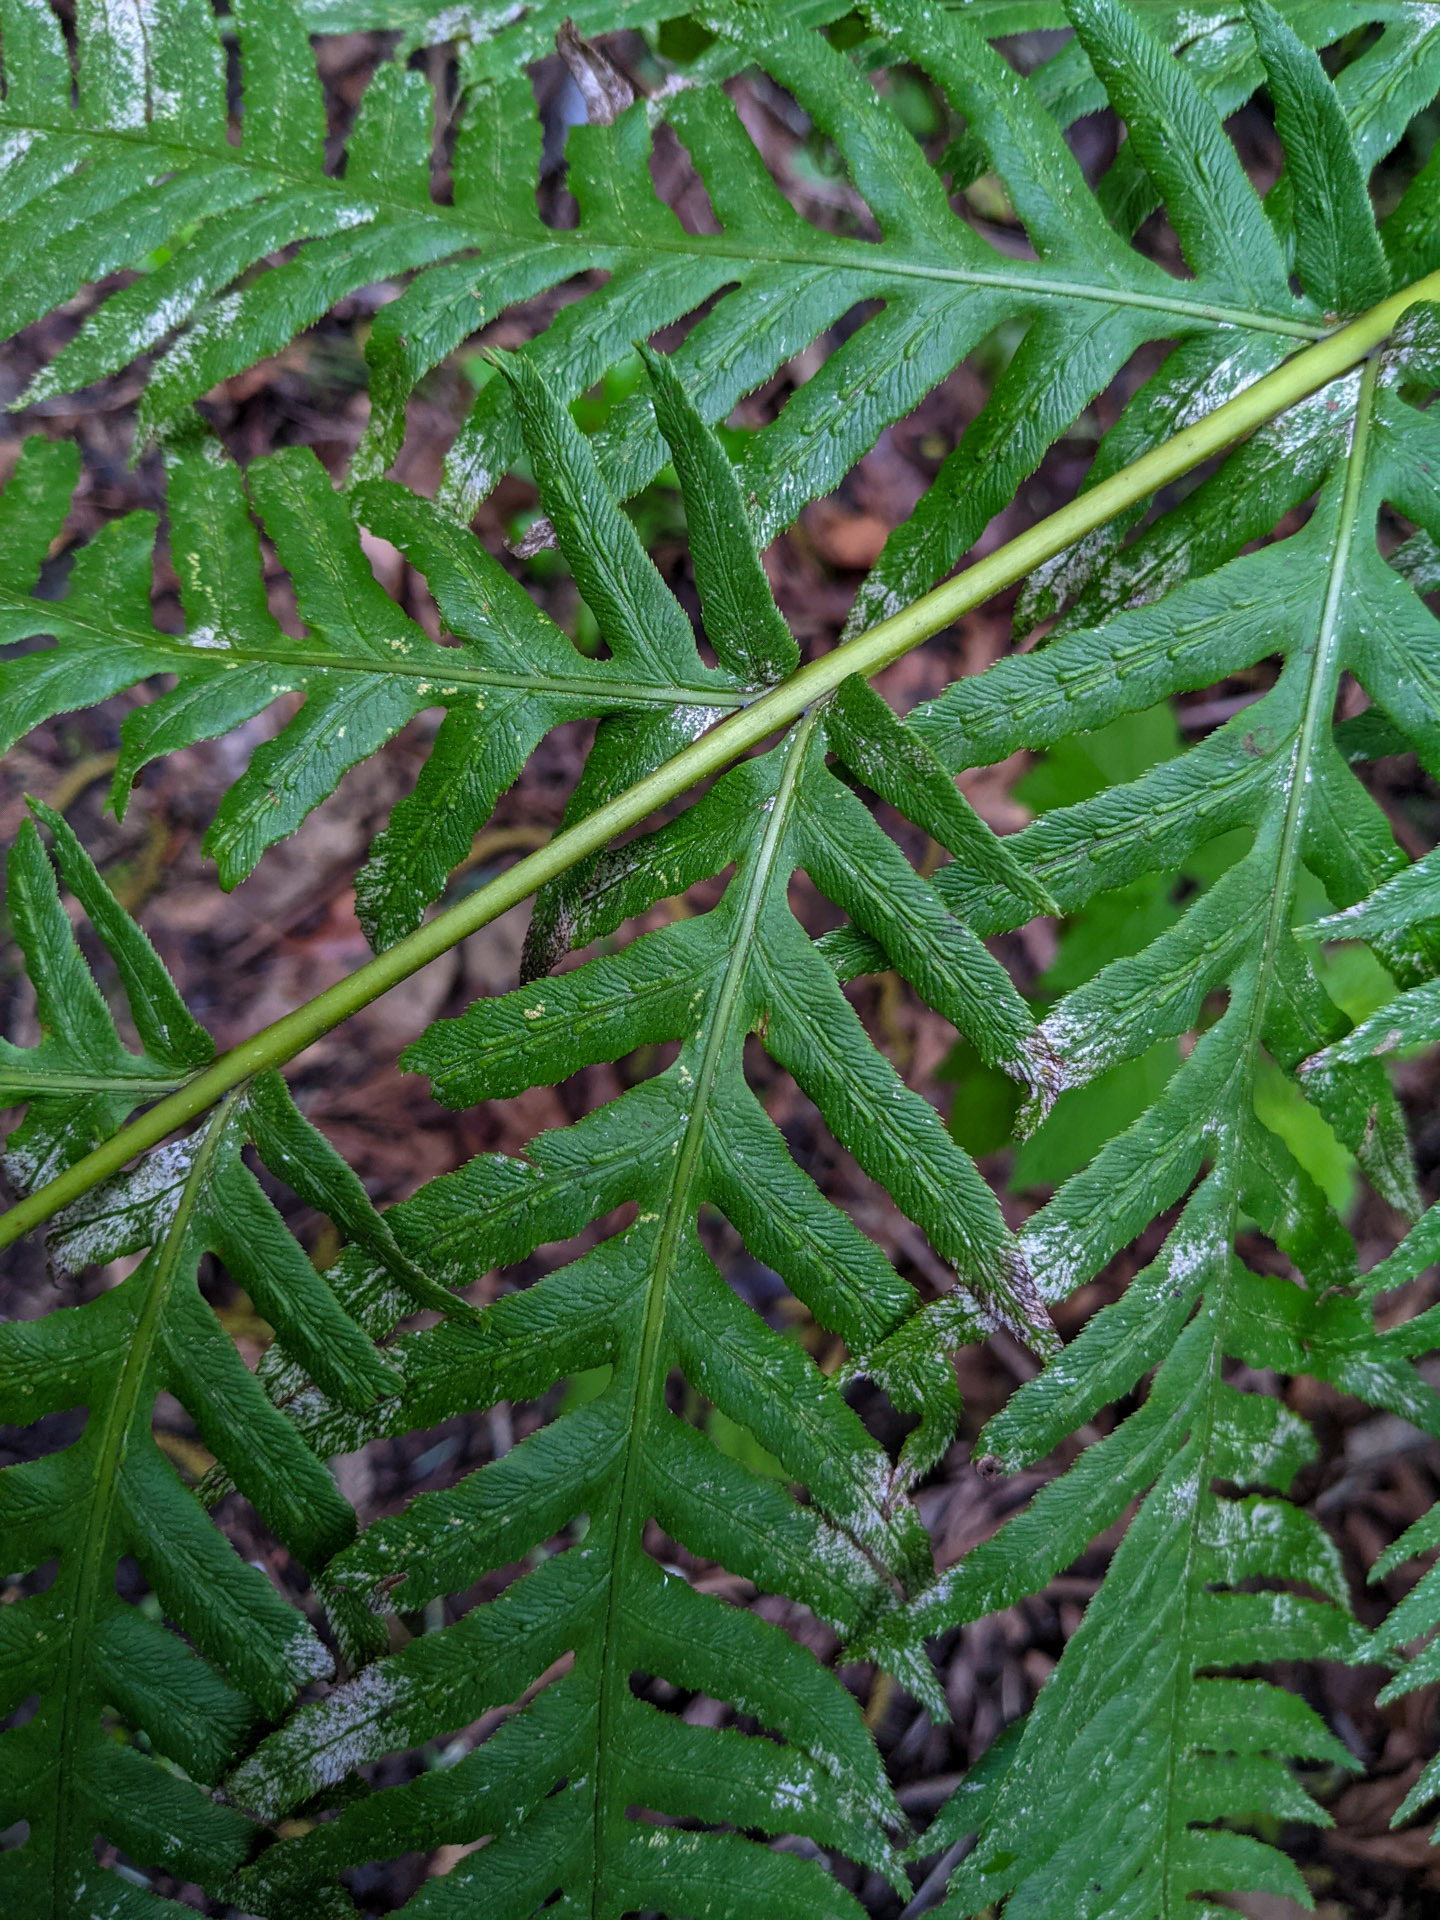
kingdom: Plantae
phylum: Tracheophyta
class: Polypodiopsida
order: Polypodiales
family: Blechnaceae
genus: Woodwardia
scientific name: Woodwardia fimbriata
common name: Giant chain fern
